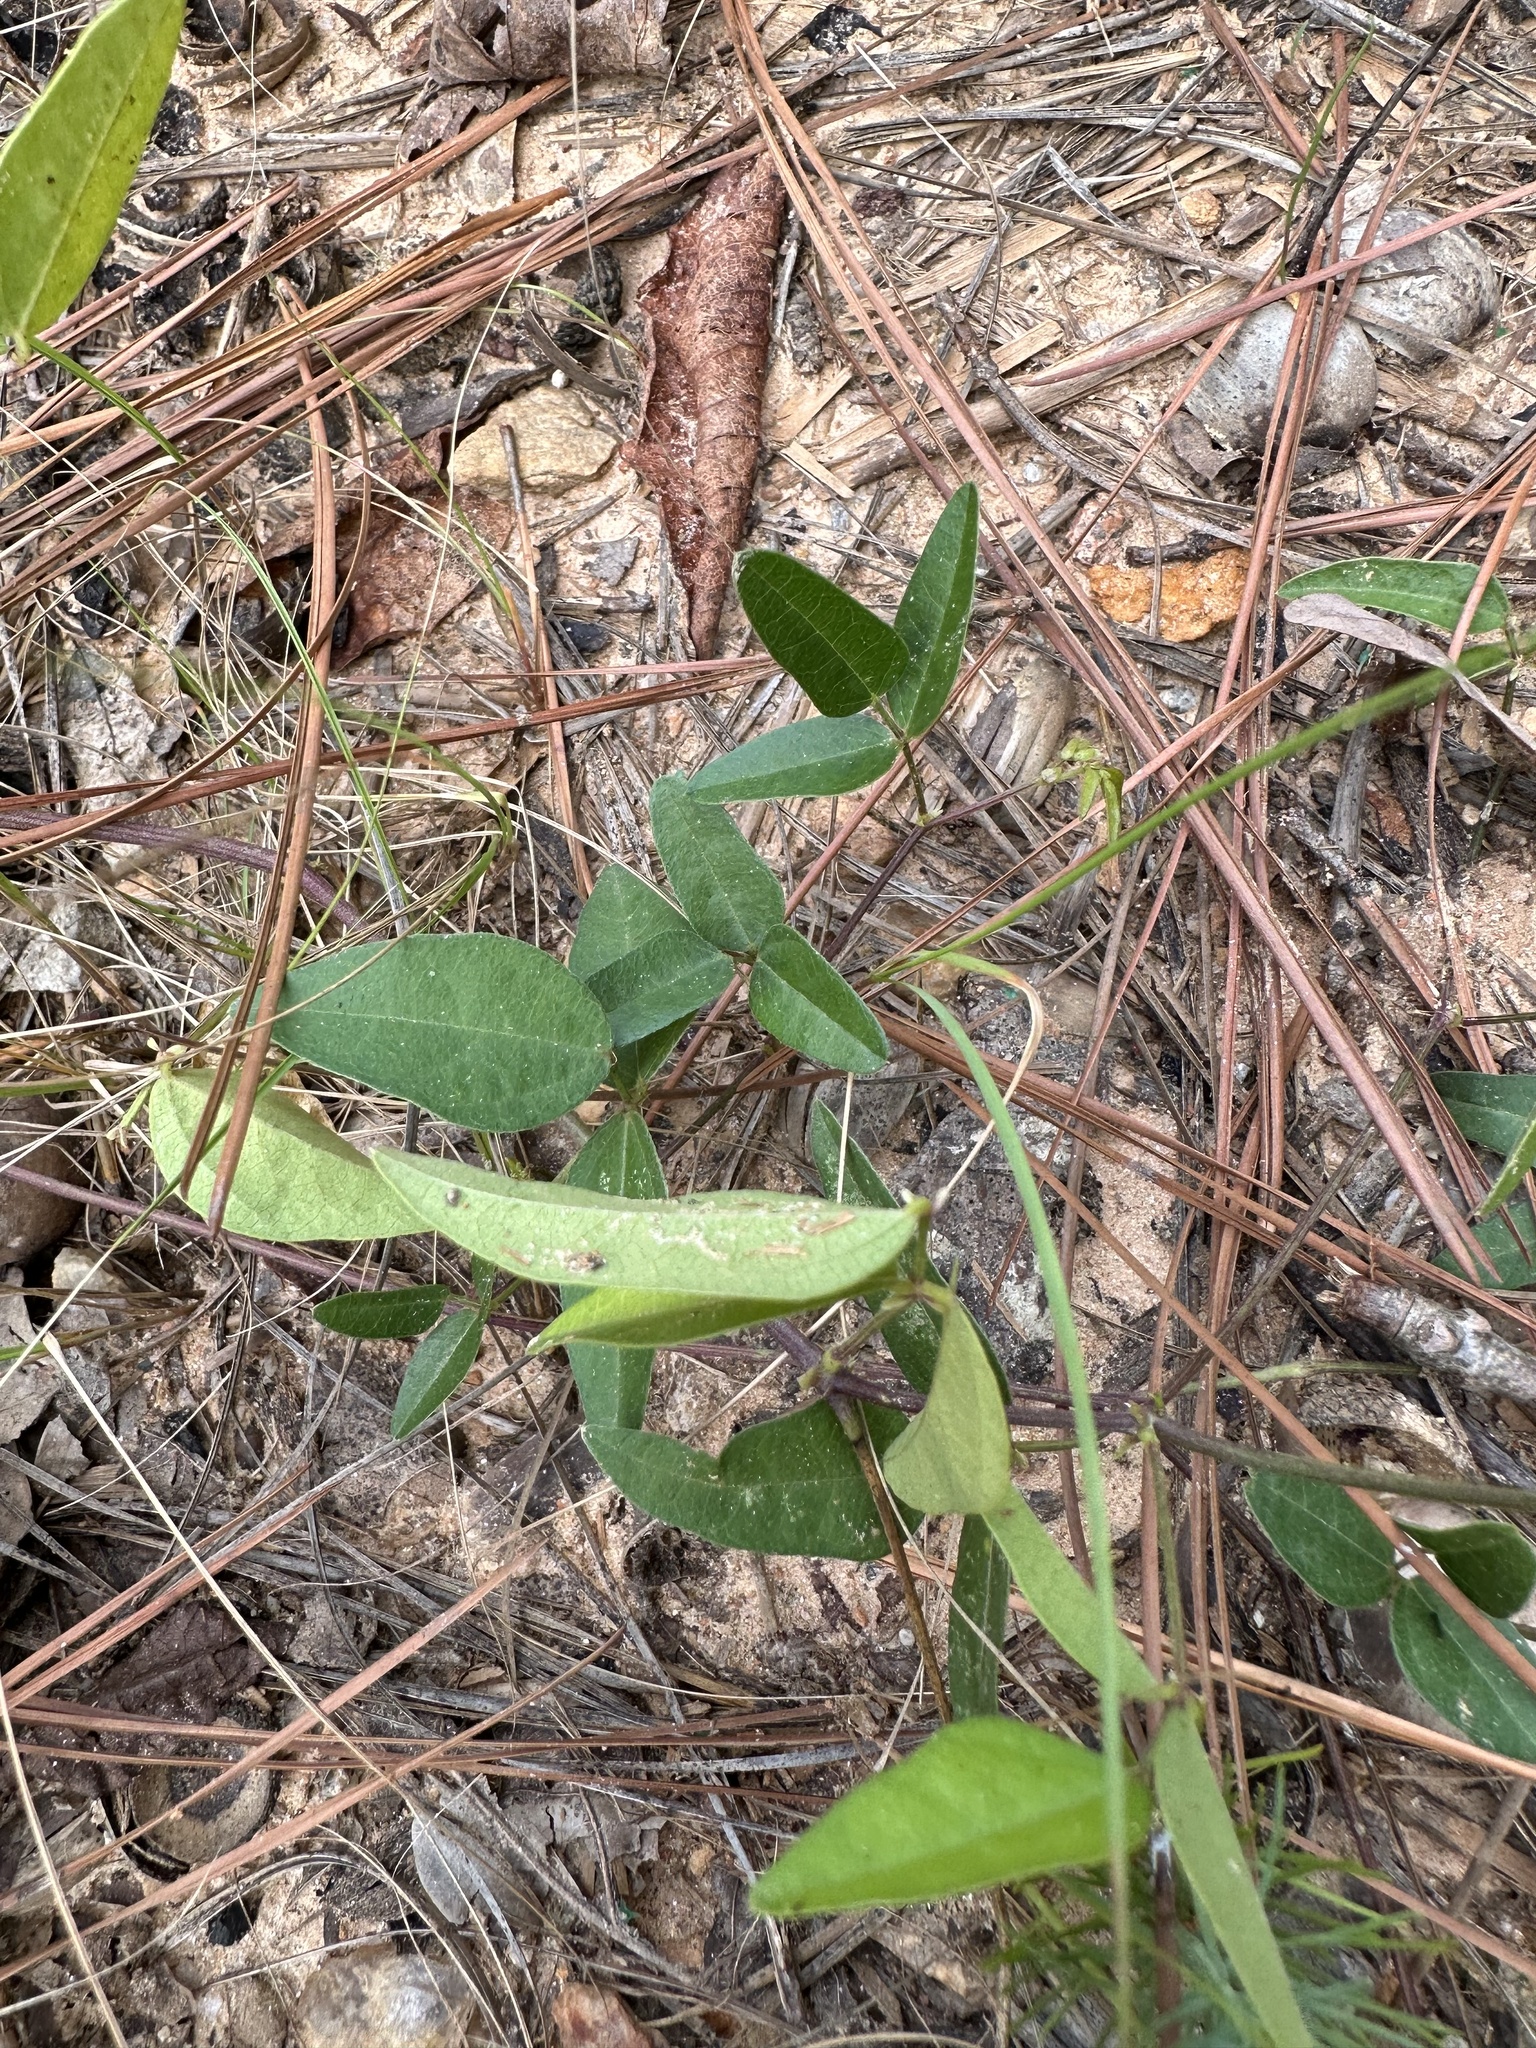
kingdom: Plantae
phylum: Tracheophyta
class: Magnoliopsida
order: Fabales
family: Fabaceae
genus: Strophostyles
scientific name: Strophostyles umbellata
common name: Perennial wild bean
